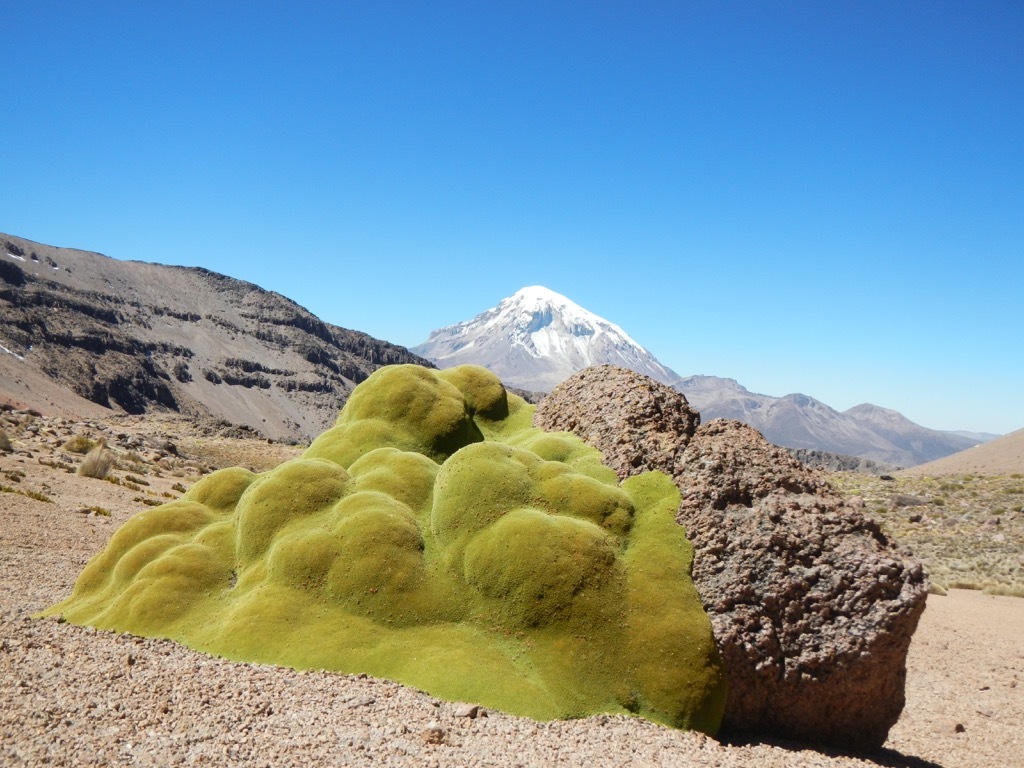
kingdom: Plantae
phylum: Tracheophyta
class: Magnoliopsida
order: Apiales
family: Apiaceae
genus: Azorella
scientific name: Azorella compacta
